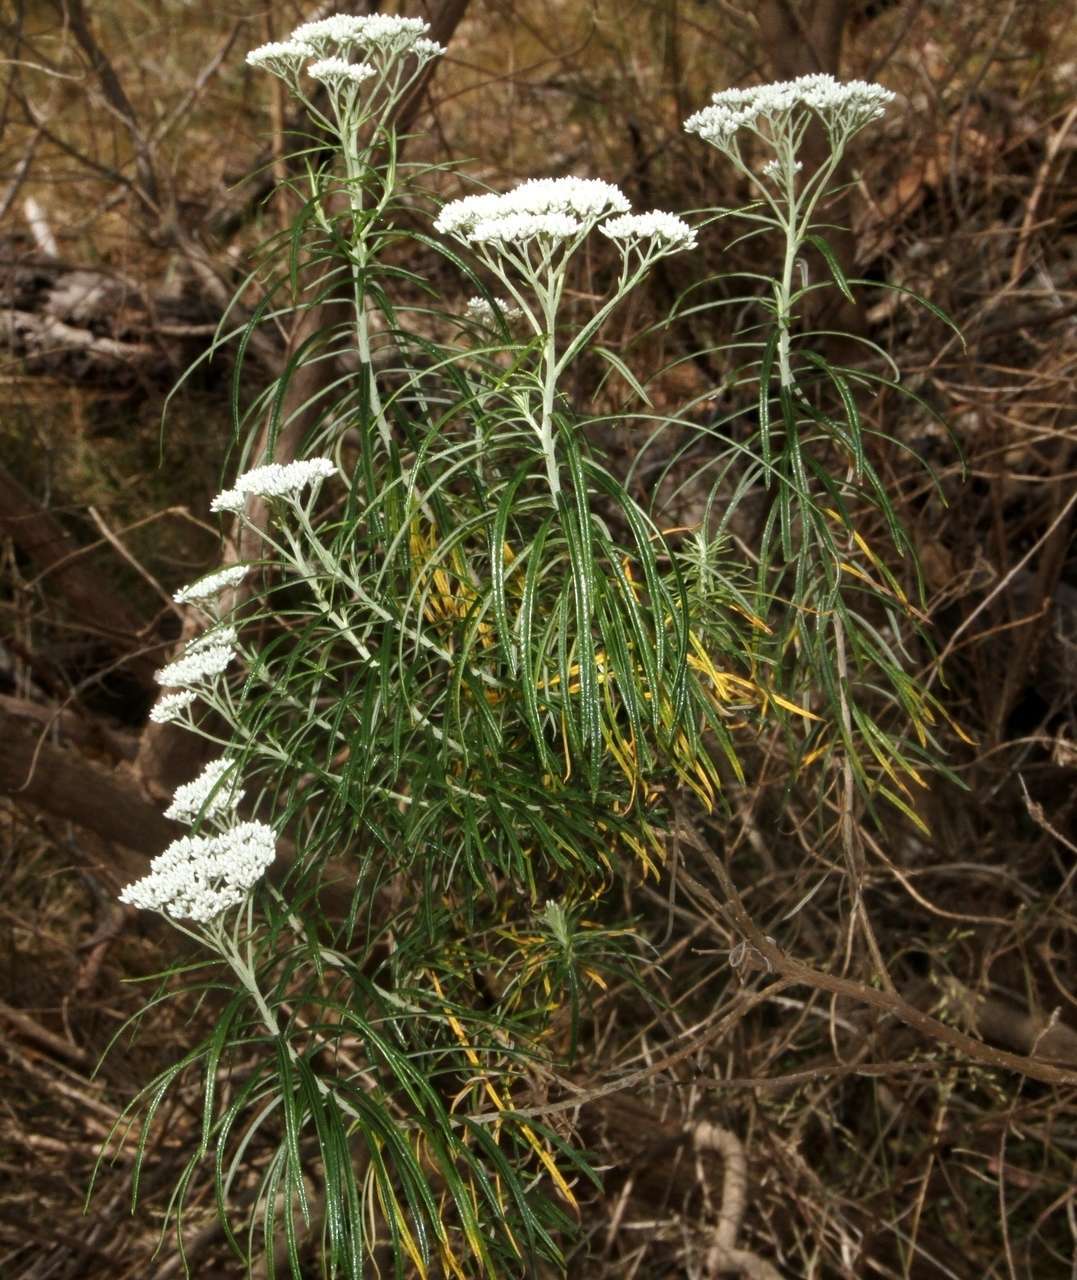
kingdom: Plantae
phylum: Tracheophyta
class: Magnoliopsida
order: Asterales
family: Asteraceae
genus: Cassinia
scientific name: Cassinia longifolia
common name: Longleaf-dogwood
